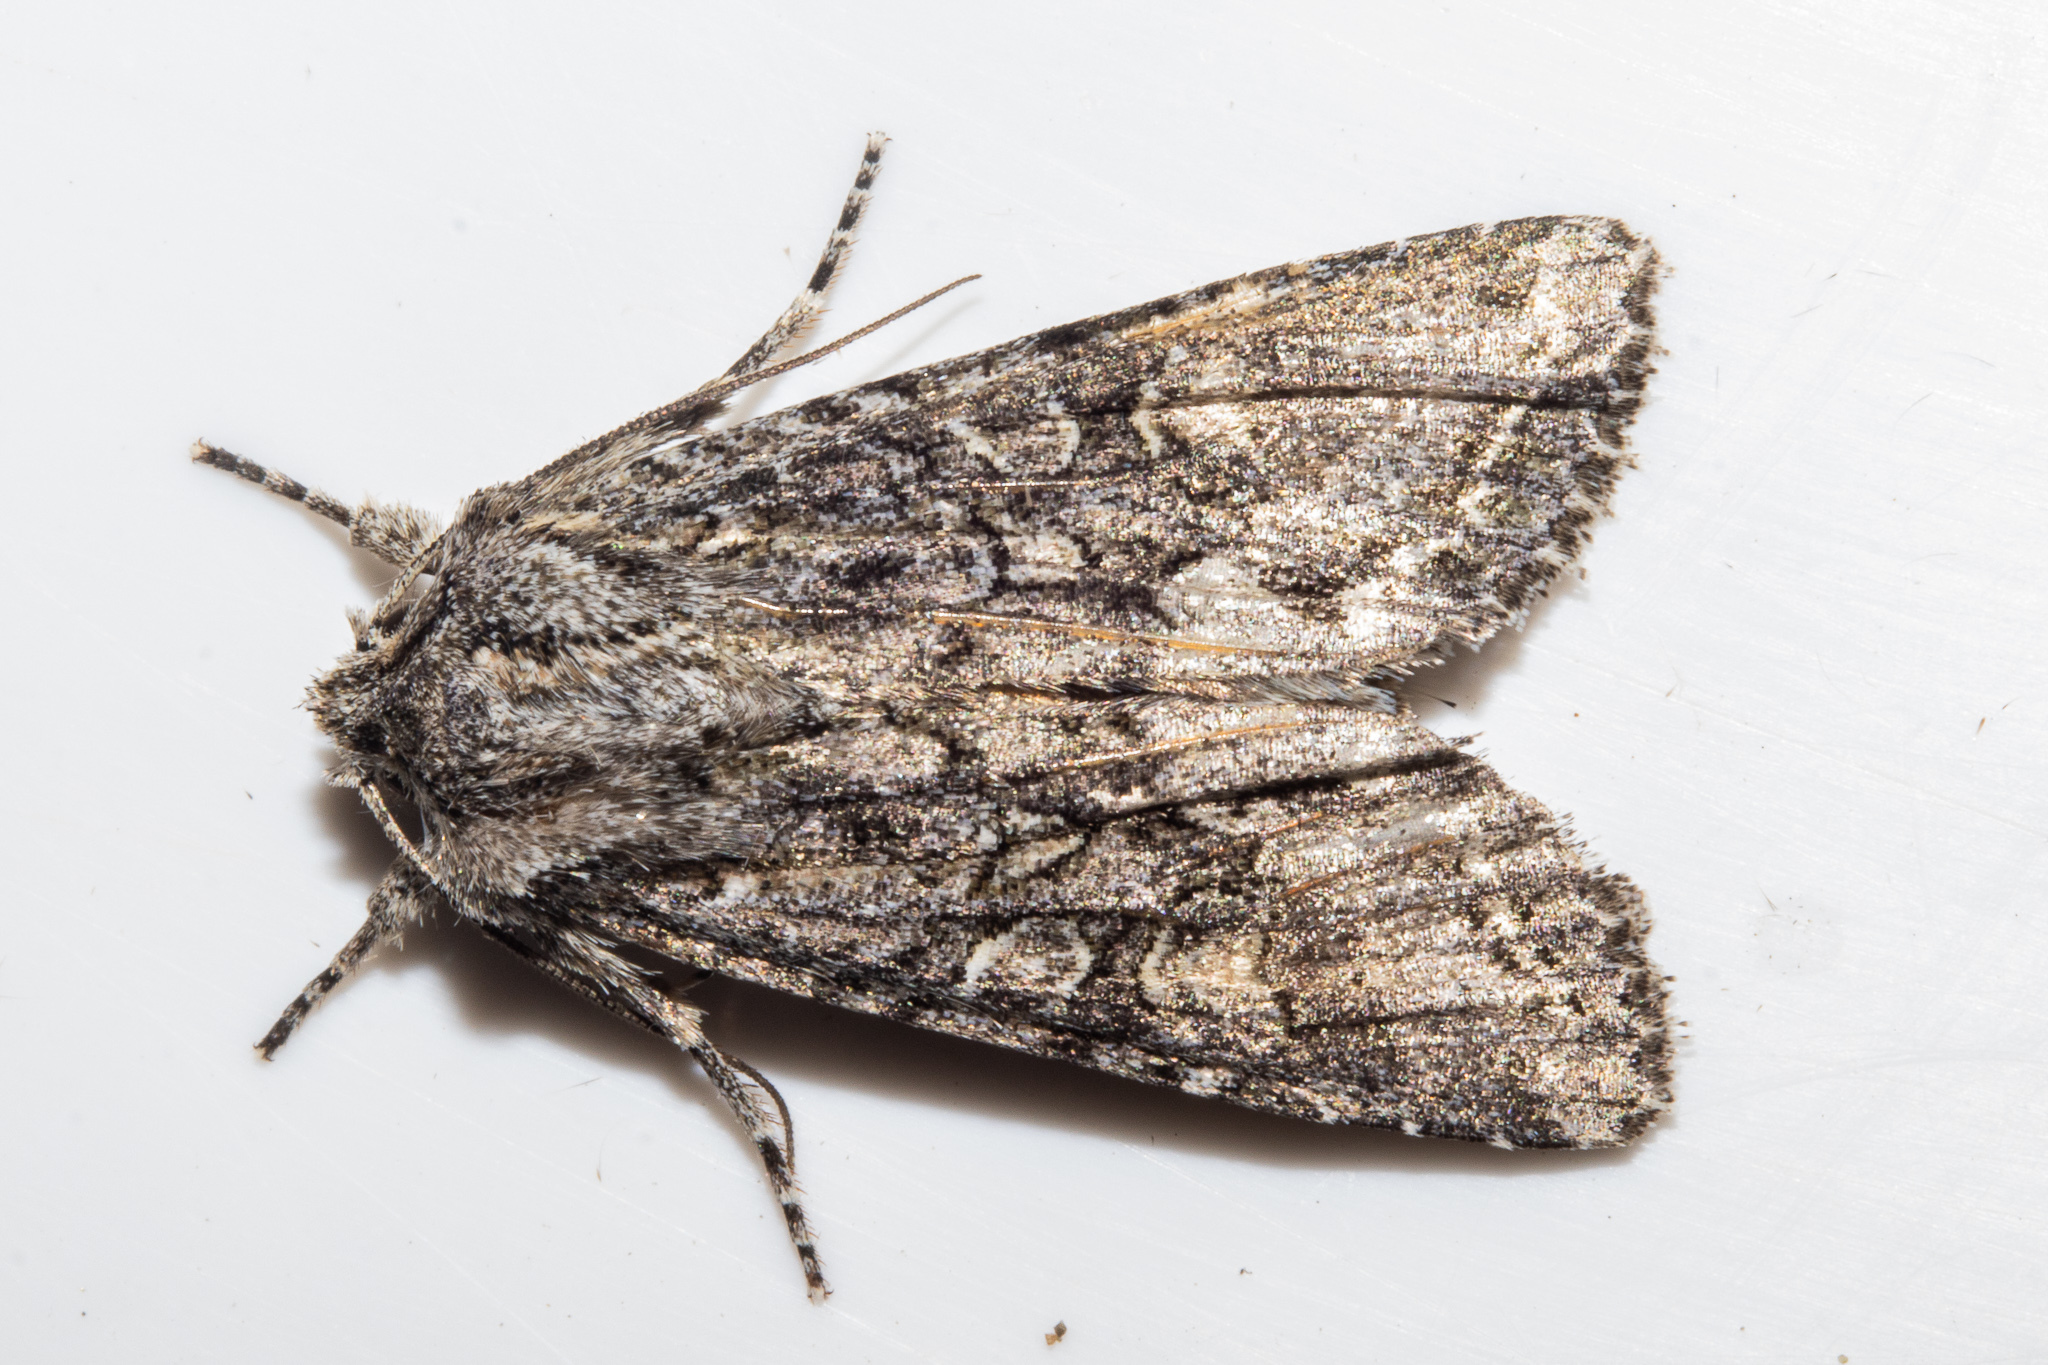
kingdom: Animalia
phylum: Arthropoda
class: Insecta
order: Lepidoptera
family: Noctuidae
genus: Ichneutica
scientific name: Ichneutica mutans
